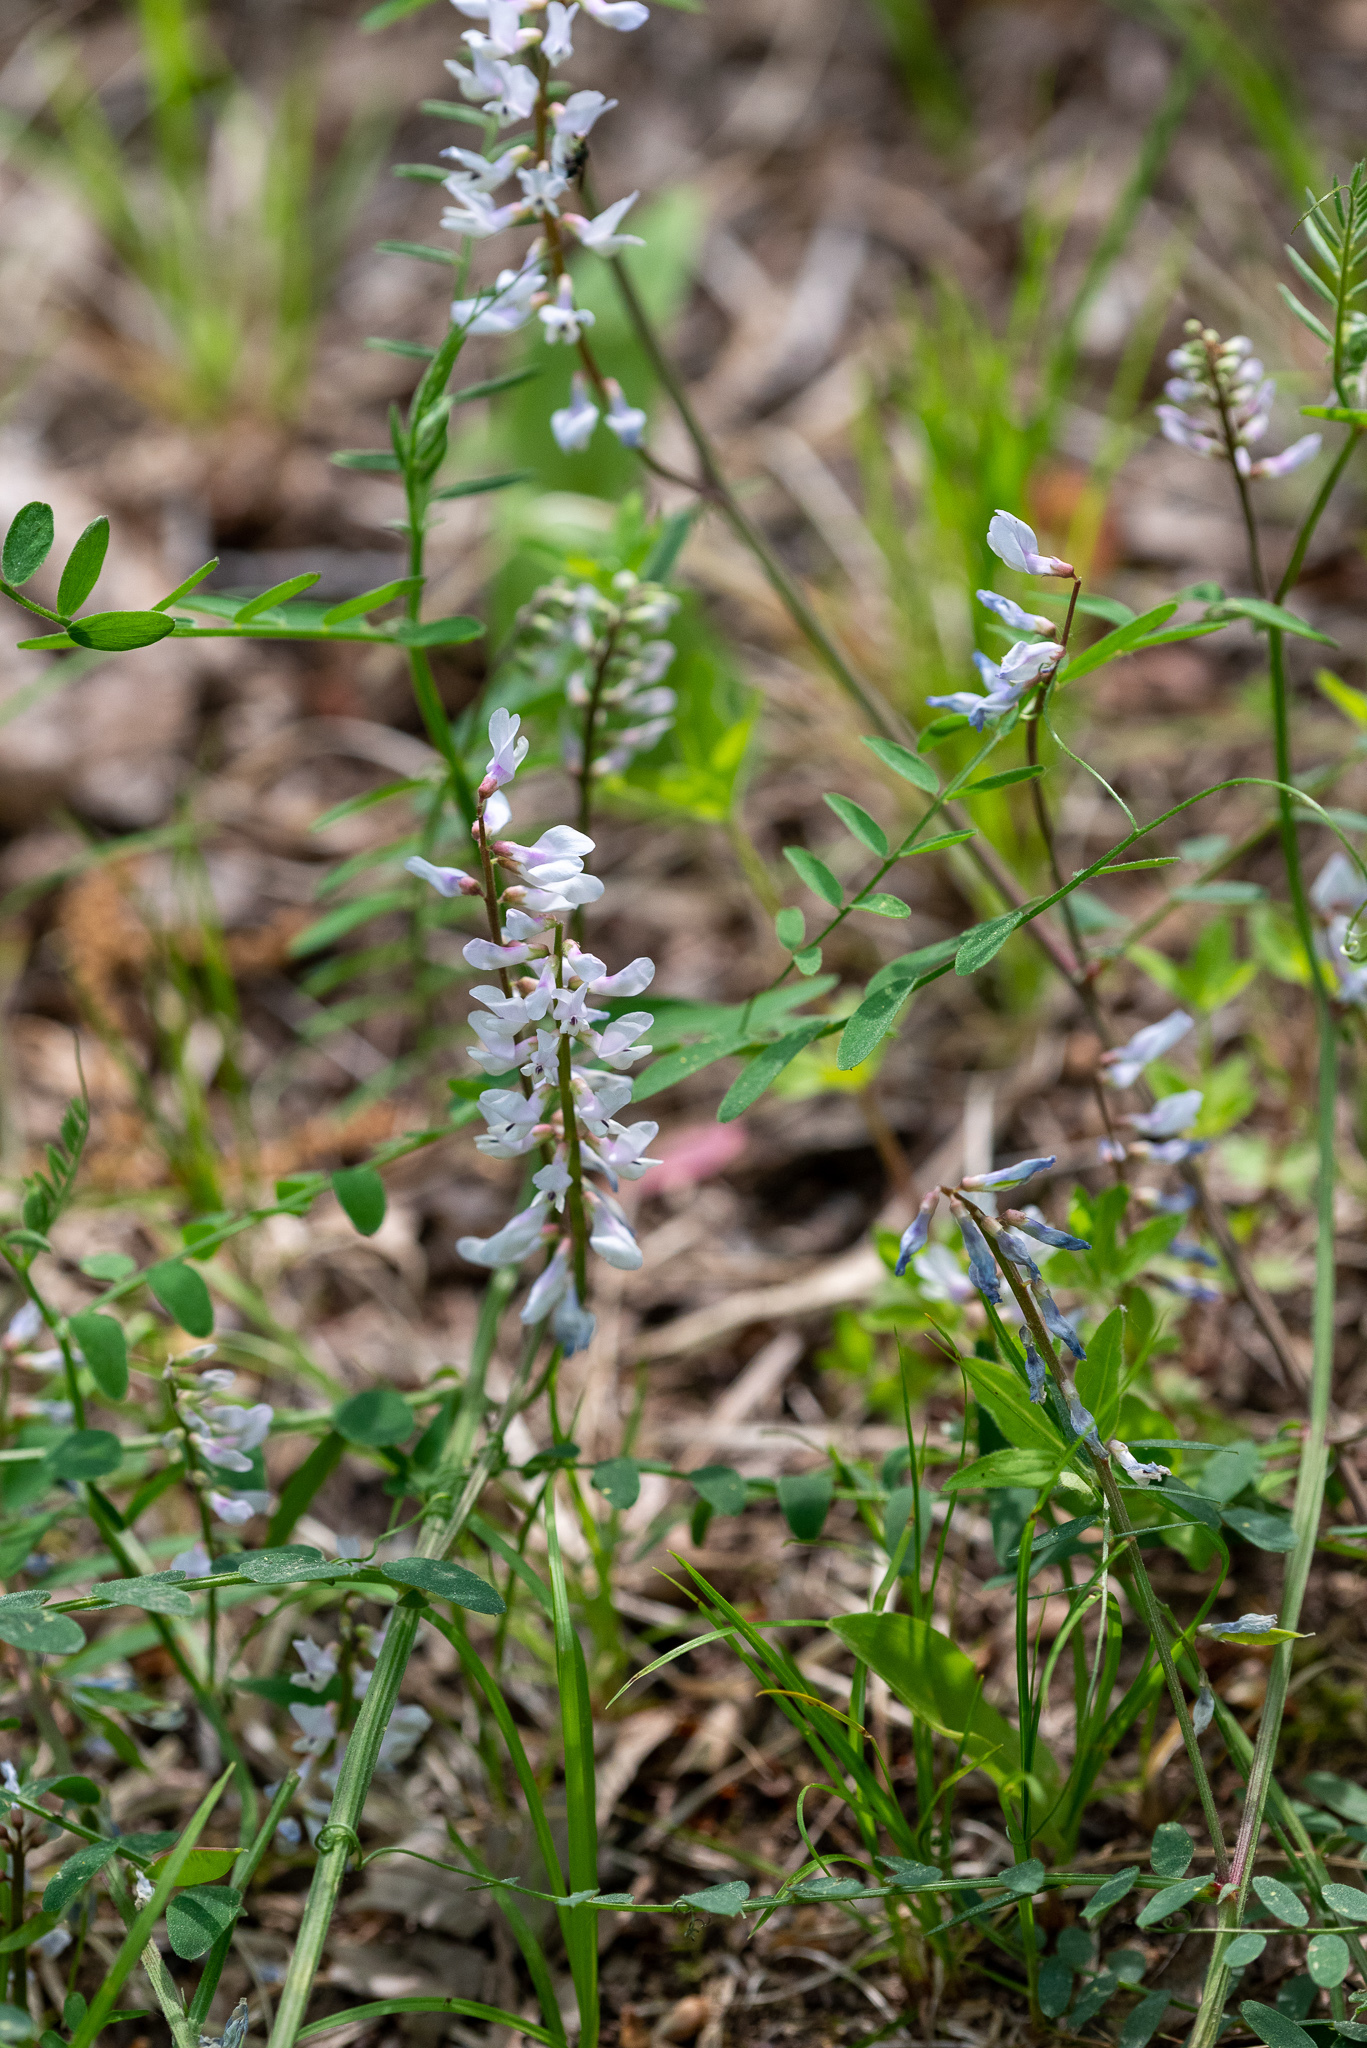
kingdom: Plantae
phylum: Tracheophyta
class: Magnoliopsida
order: Fabales
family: Fabaceae
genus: Vicia
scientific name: Vicia caroliniana
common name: Carolina vetch
